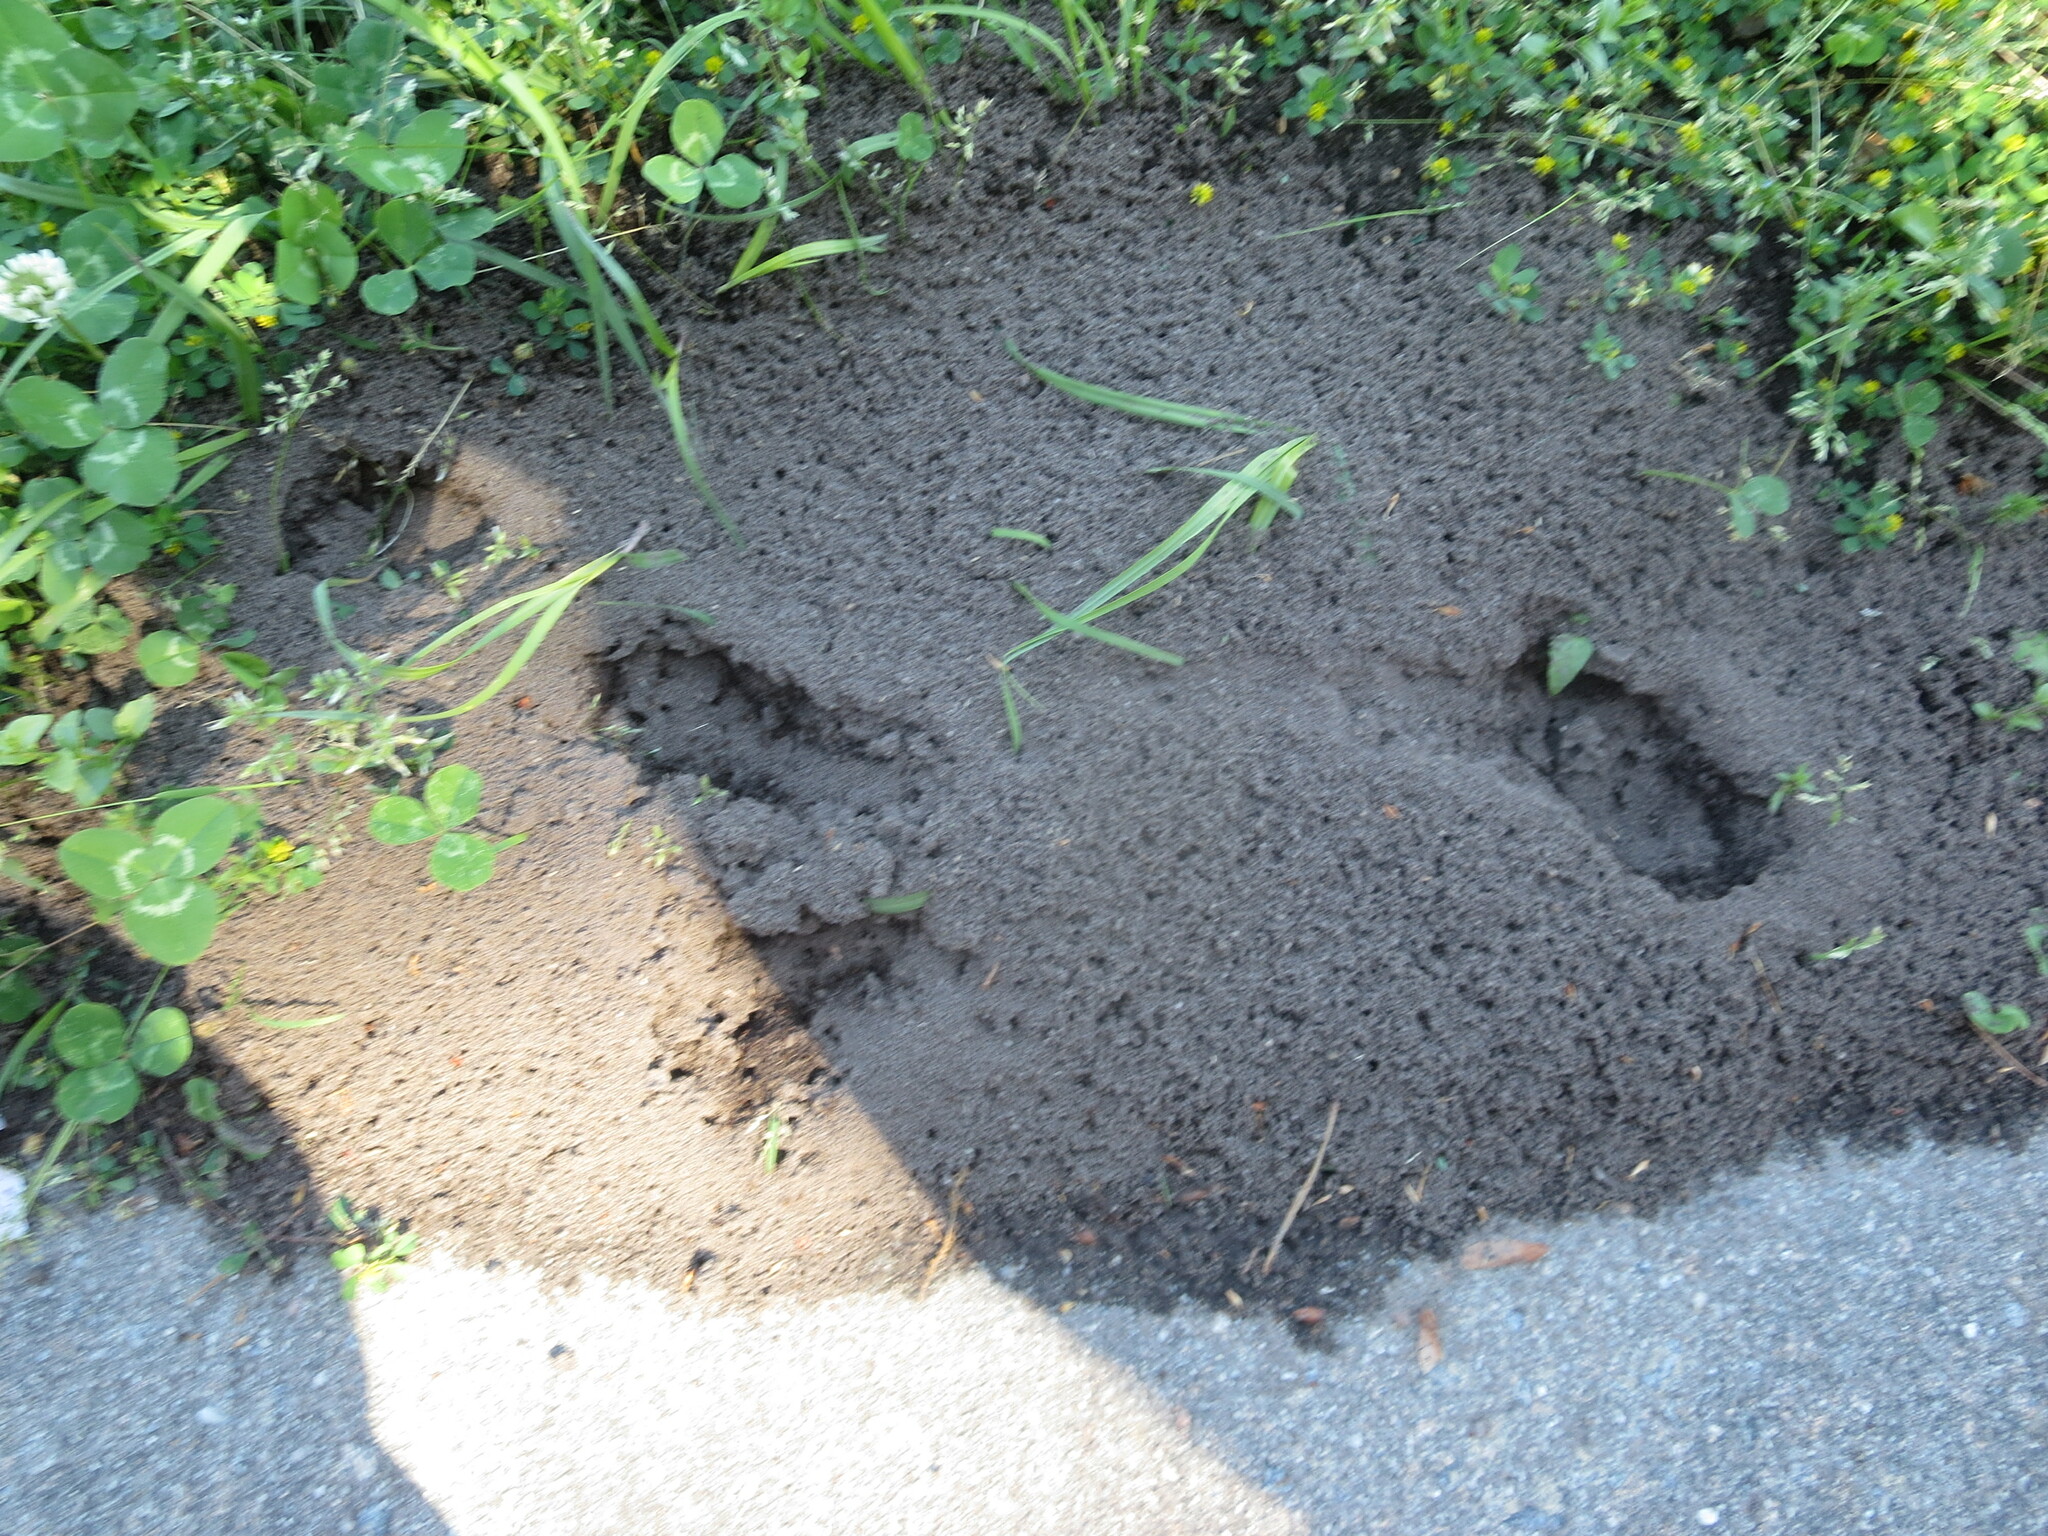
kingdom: Animalia
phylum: Arthropoda
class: Insecta
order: Hymenoptera
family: Formicidae
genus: Solenopsis
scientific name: Solenopsis invicta
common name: Red imported fire ant
